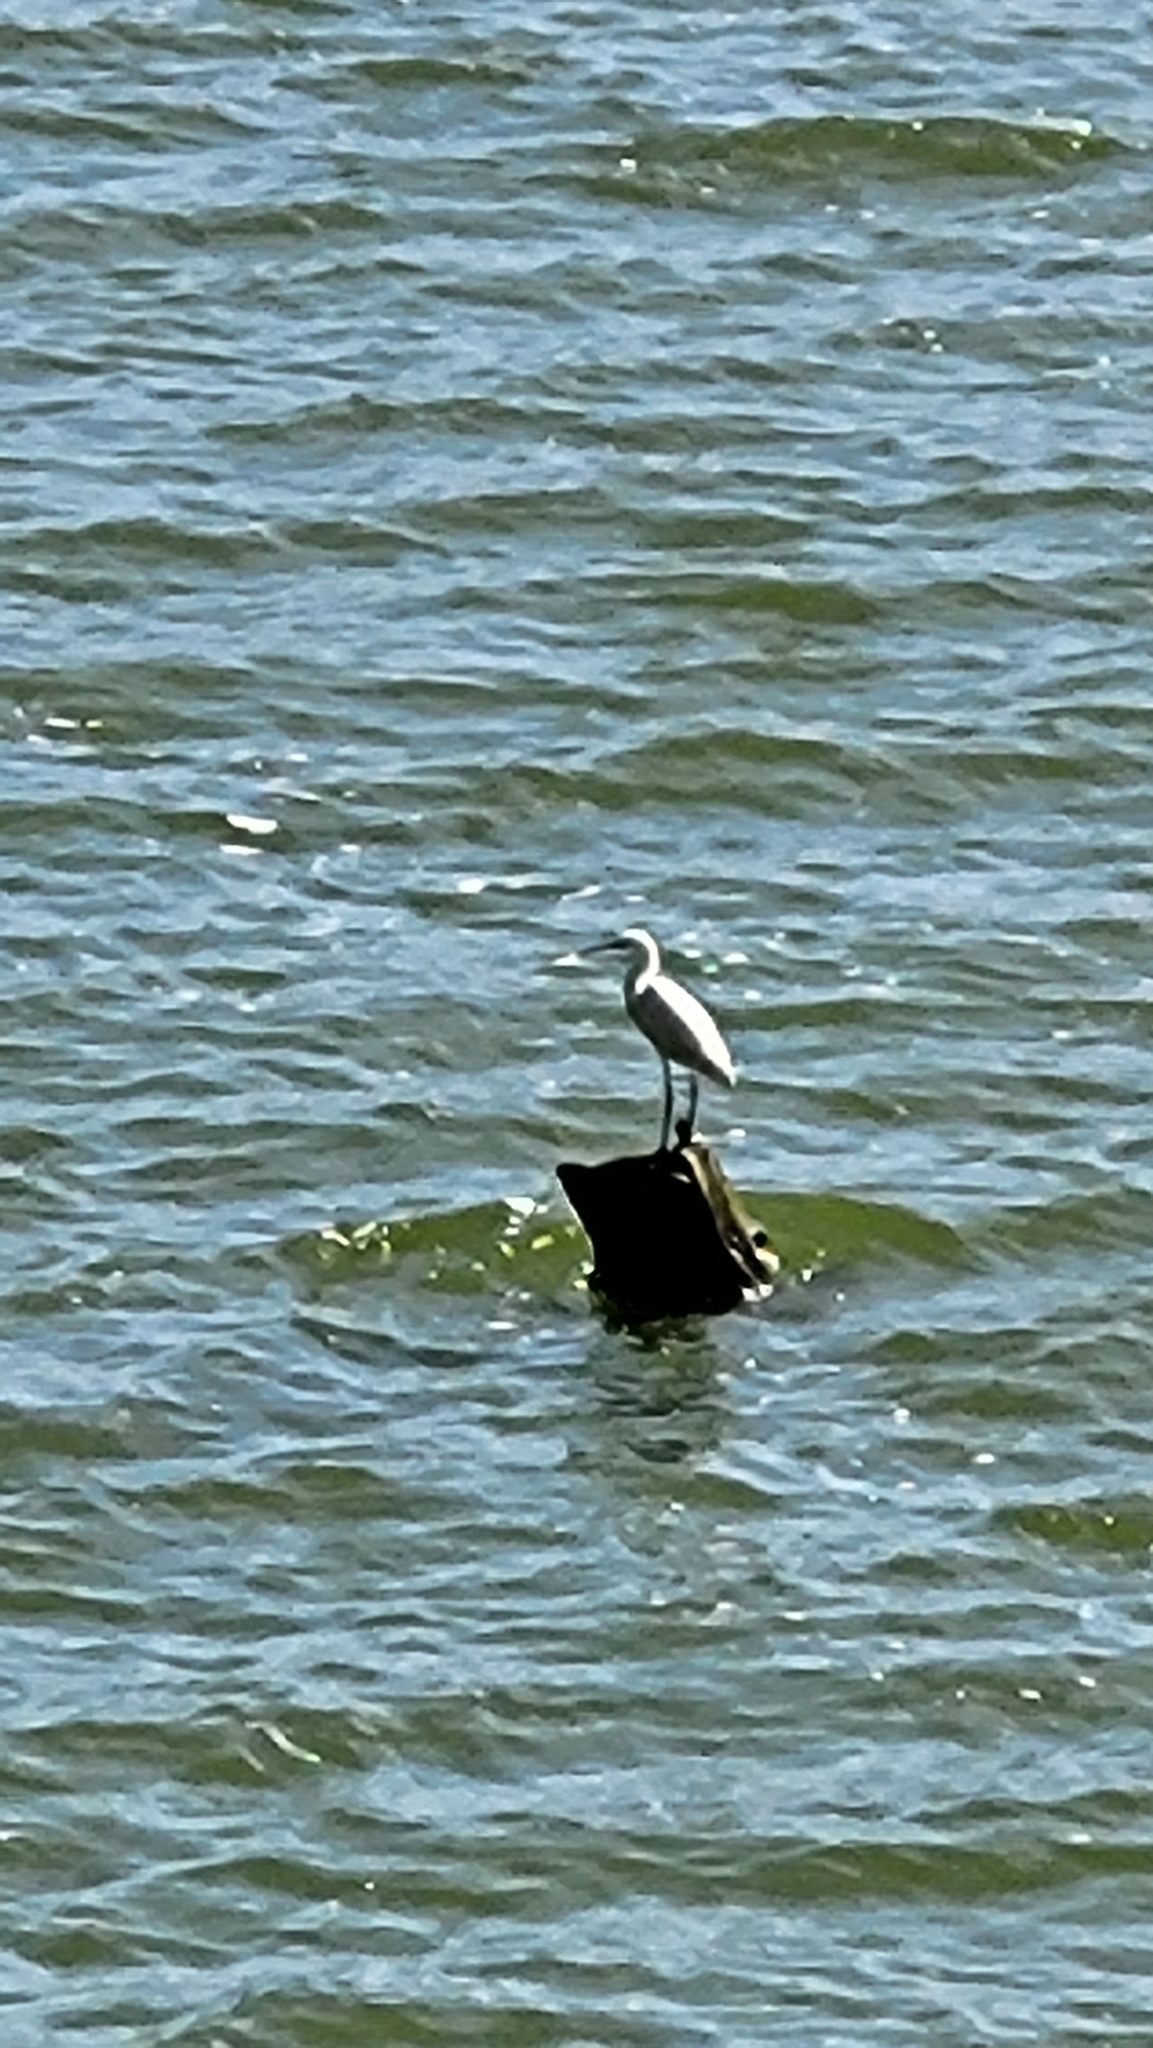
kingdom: Animalia
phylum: Chordata
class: Aves
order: Pelecaniformes
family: Ardeidae
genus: Egretta
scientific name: Egretta garzetta
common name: Little egret
